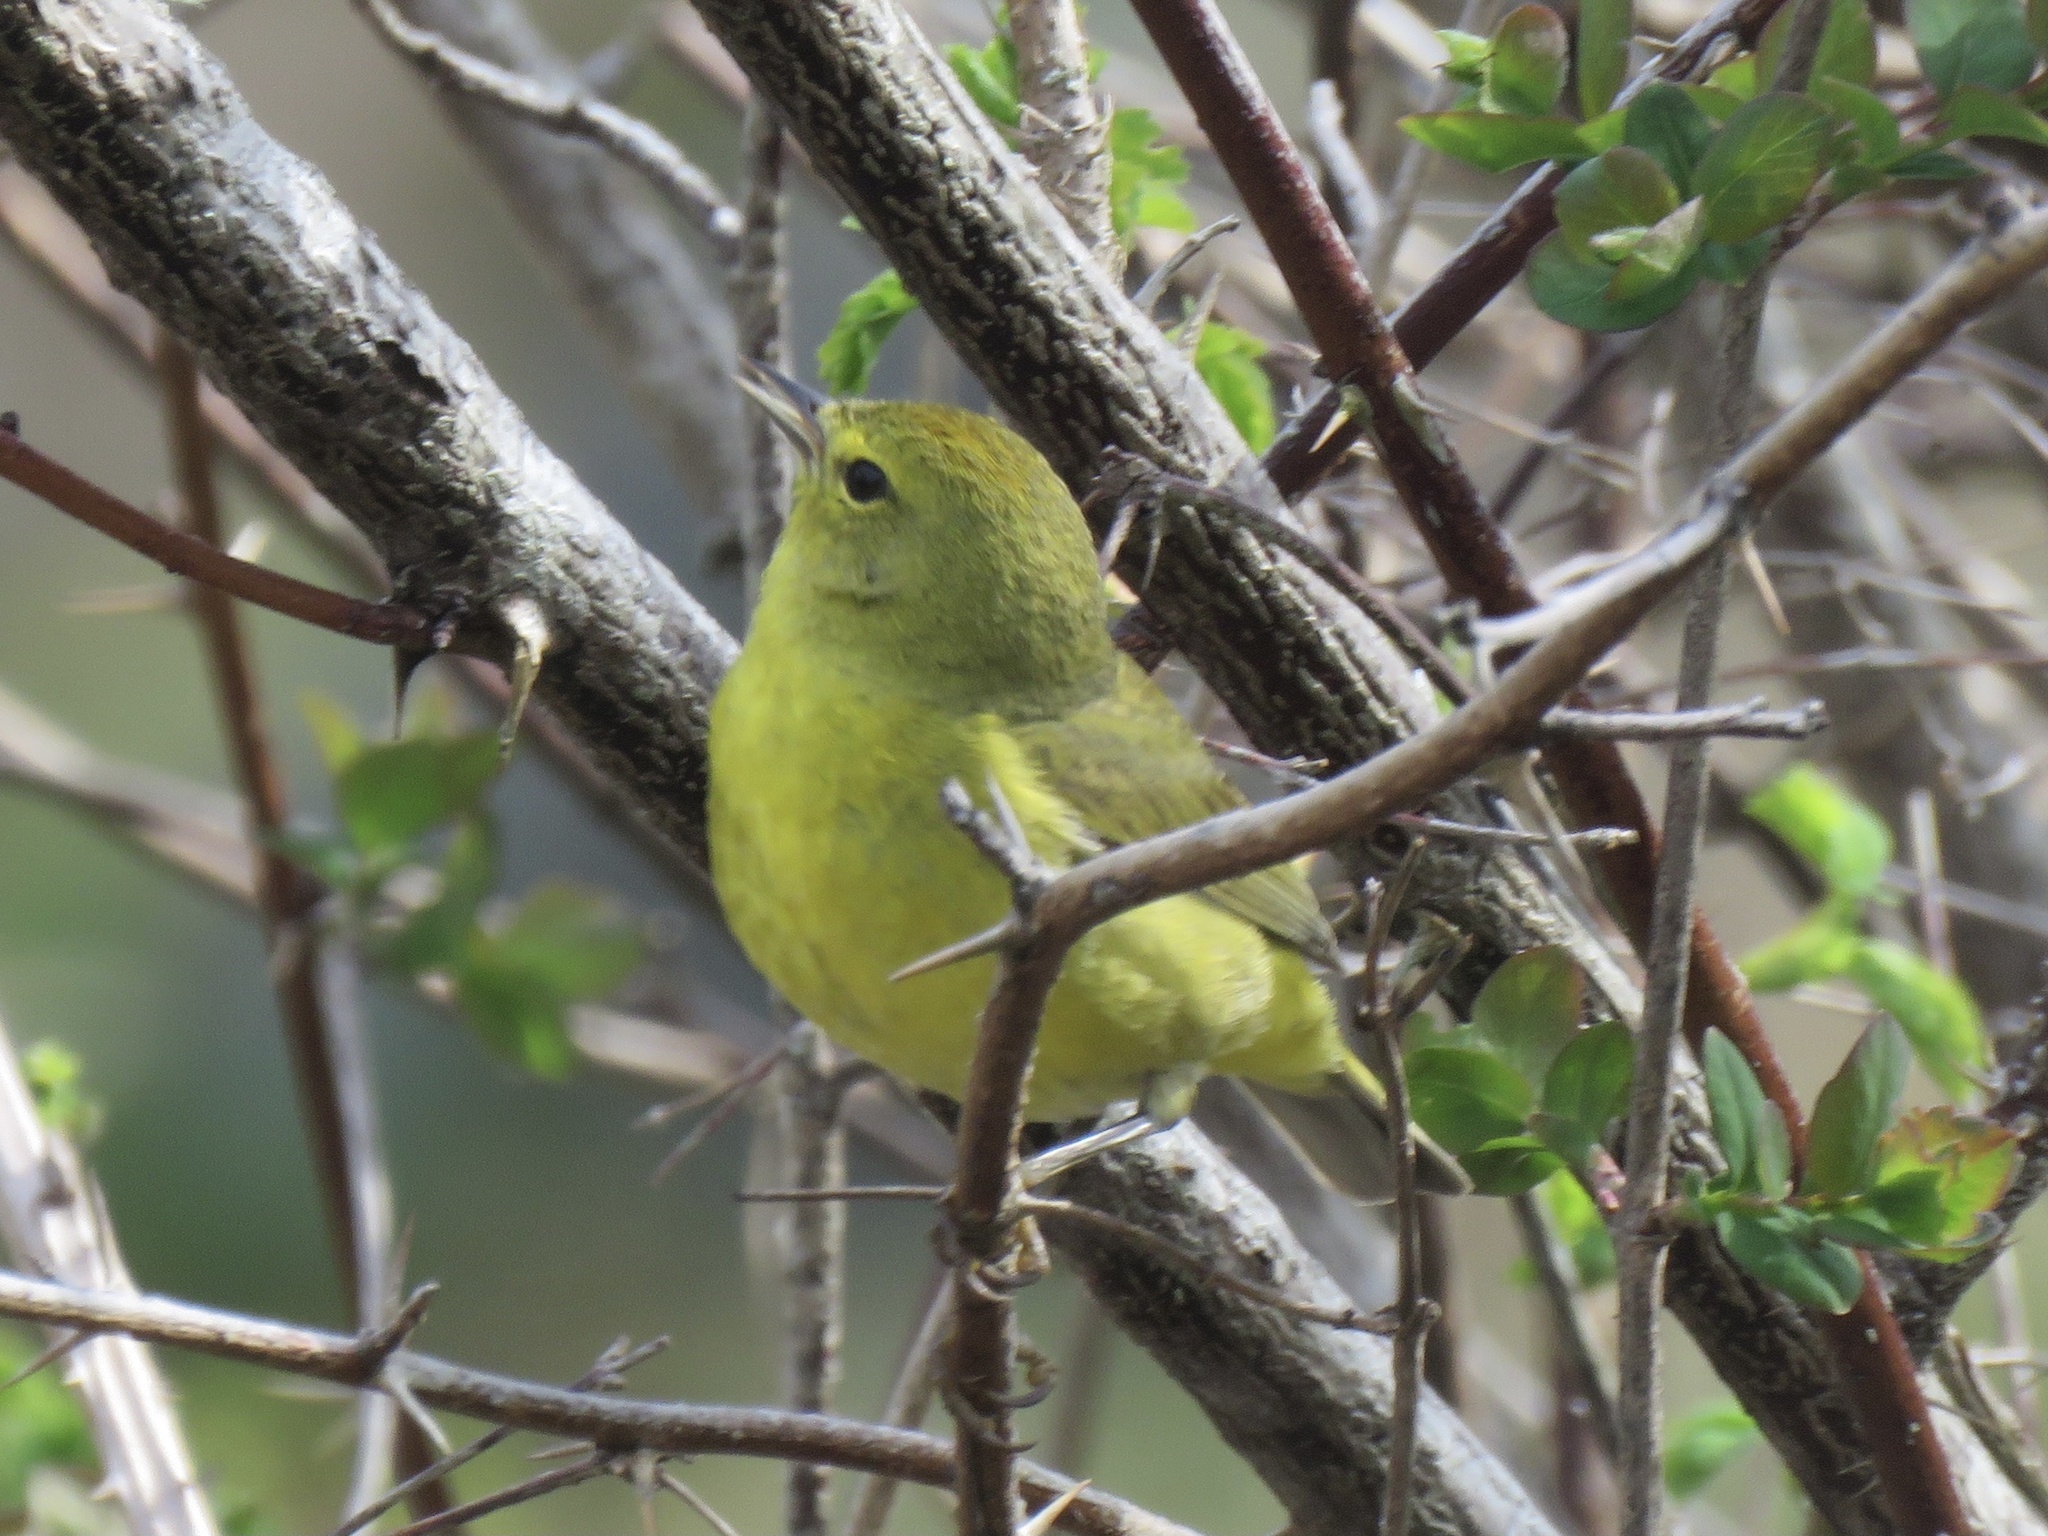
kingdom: Animalia
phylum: Chordata
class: Aves
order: Passeriformes
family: Parulidae
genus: Leiothlypis
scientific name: Leiothlypis celata
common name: Orange-crowned warbler
